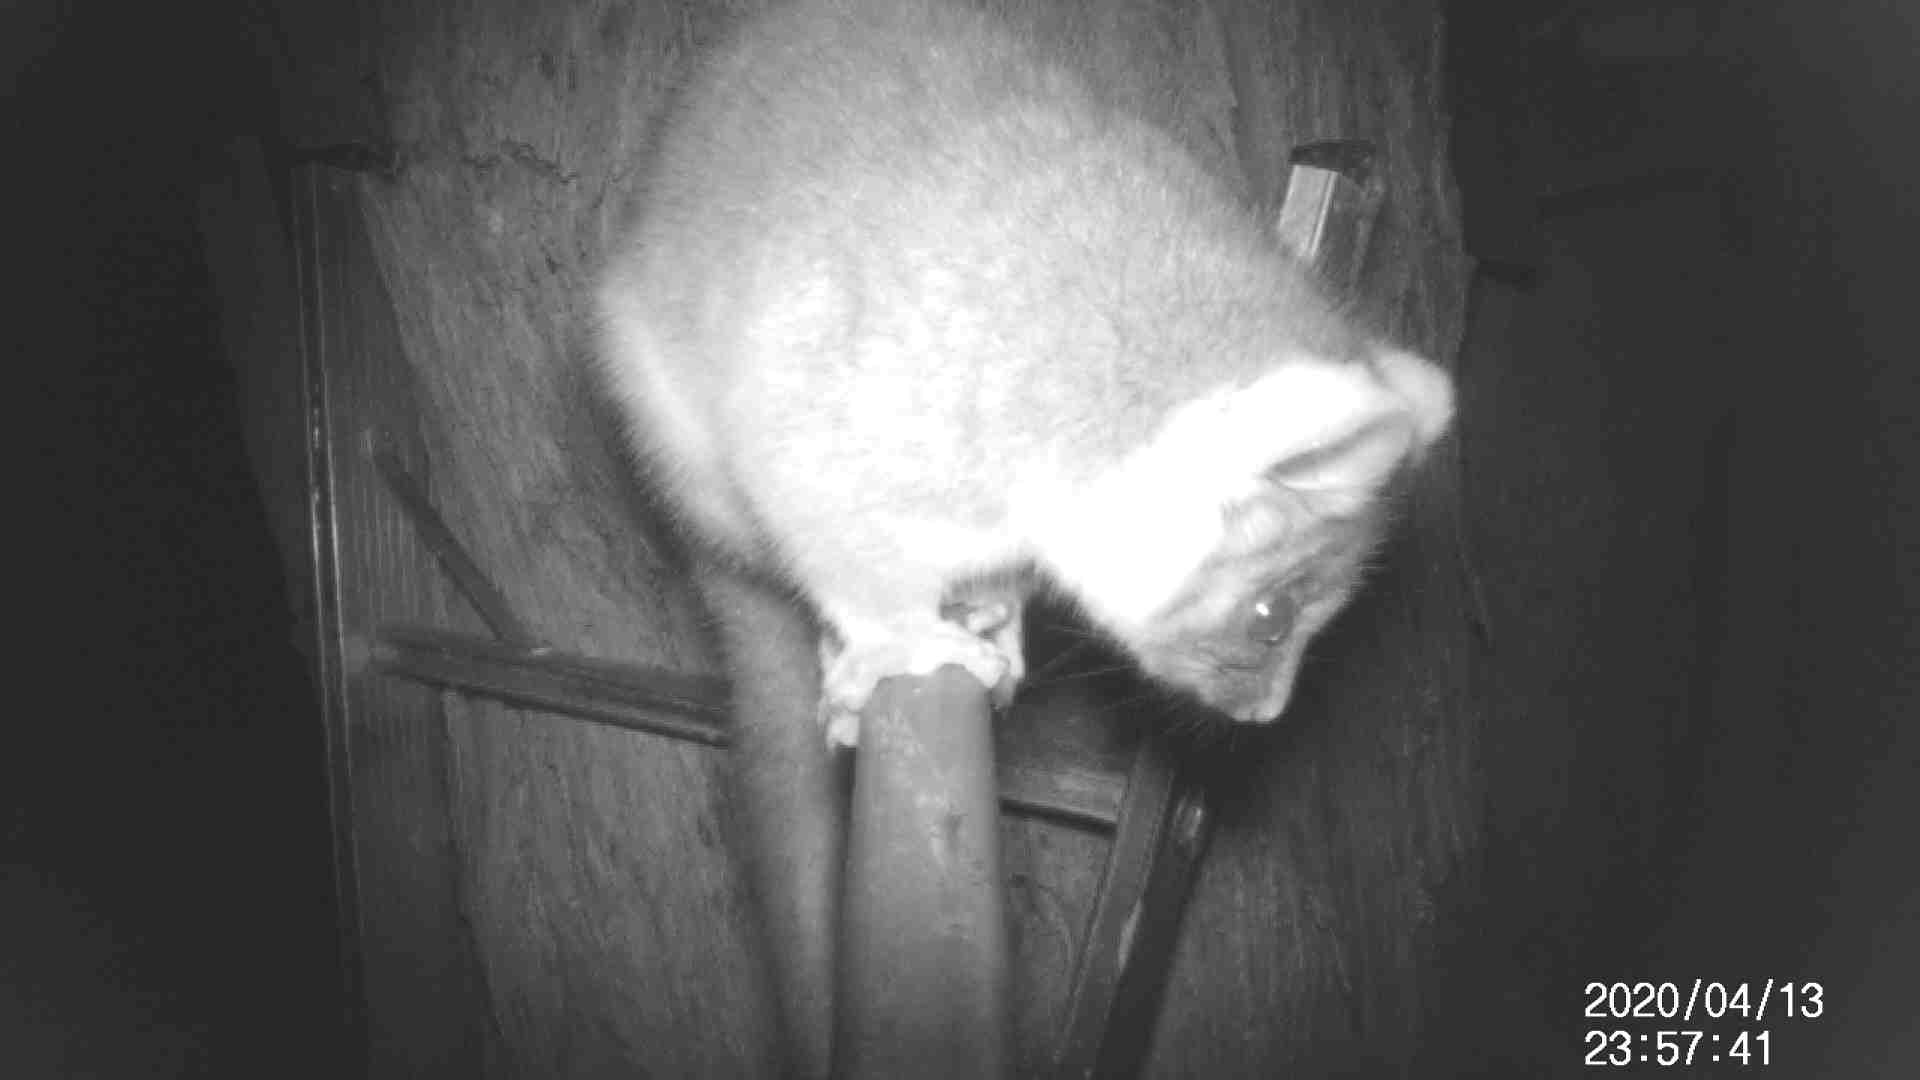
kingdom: Animalia
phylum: Chordata
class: Mammalia
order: Diprotodontia
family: Pseudocheiridae
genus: Pseudocheirus
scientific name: Pseudocheirus peregrinus
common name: Common ringtail possum
